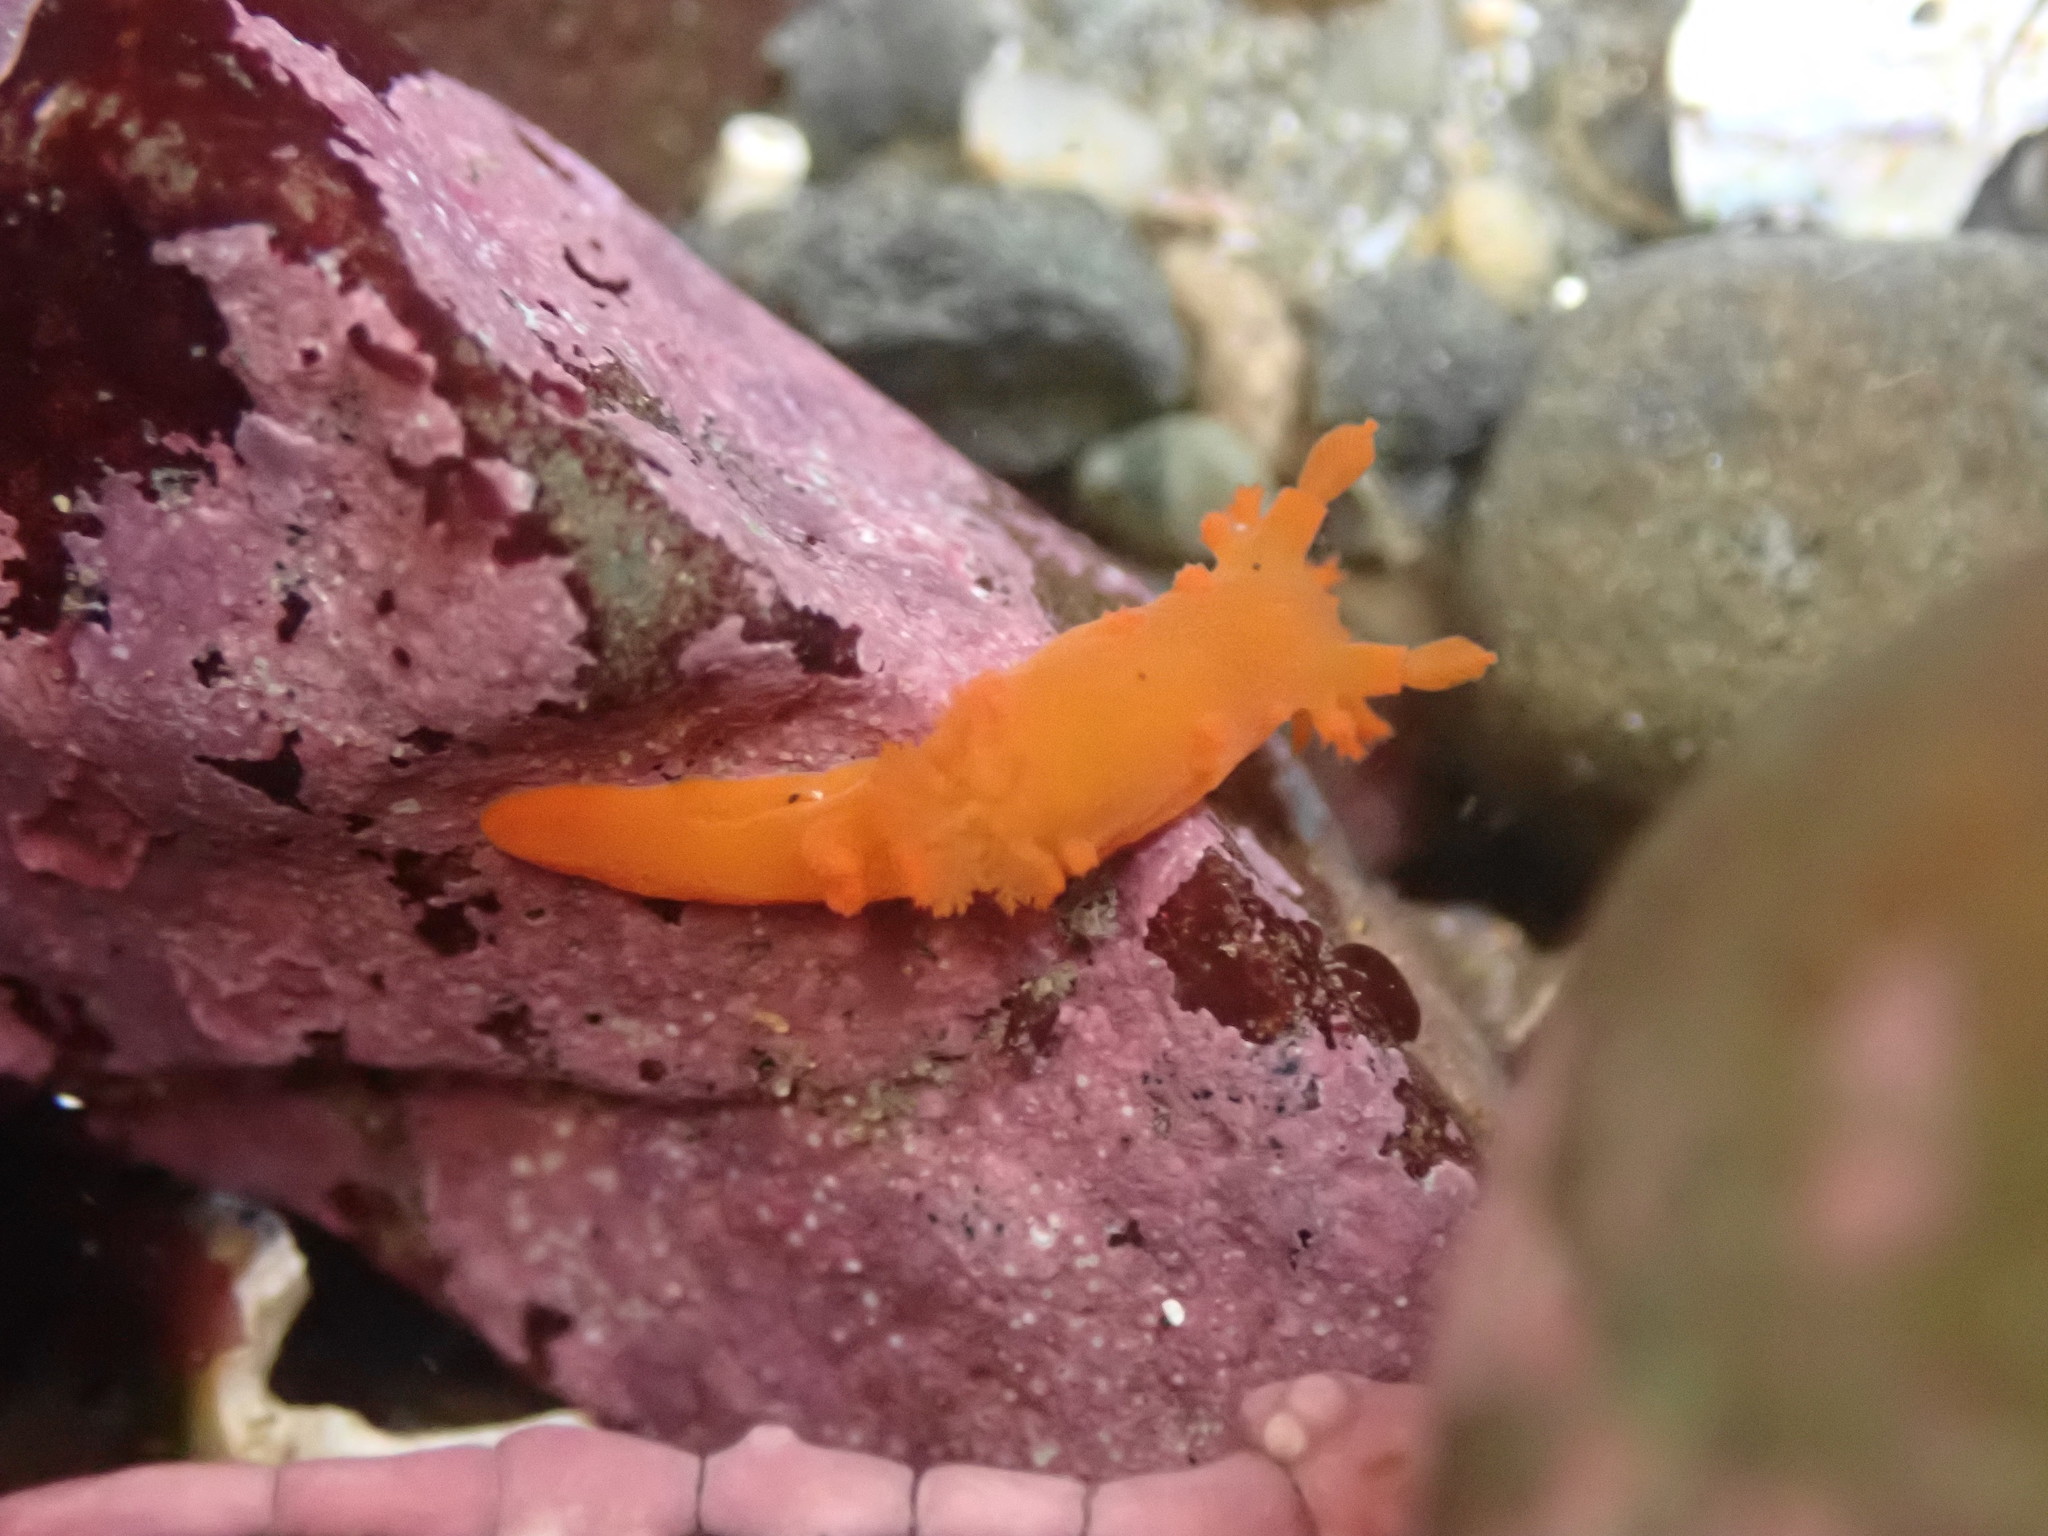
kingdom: Animalia
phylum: Mollusca
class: Gastropoda
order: Nudibranchia
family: Polyceridae
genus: Triopha
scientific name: Triopha maculata
